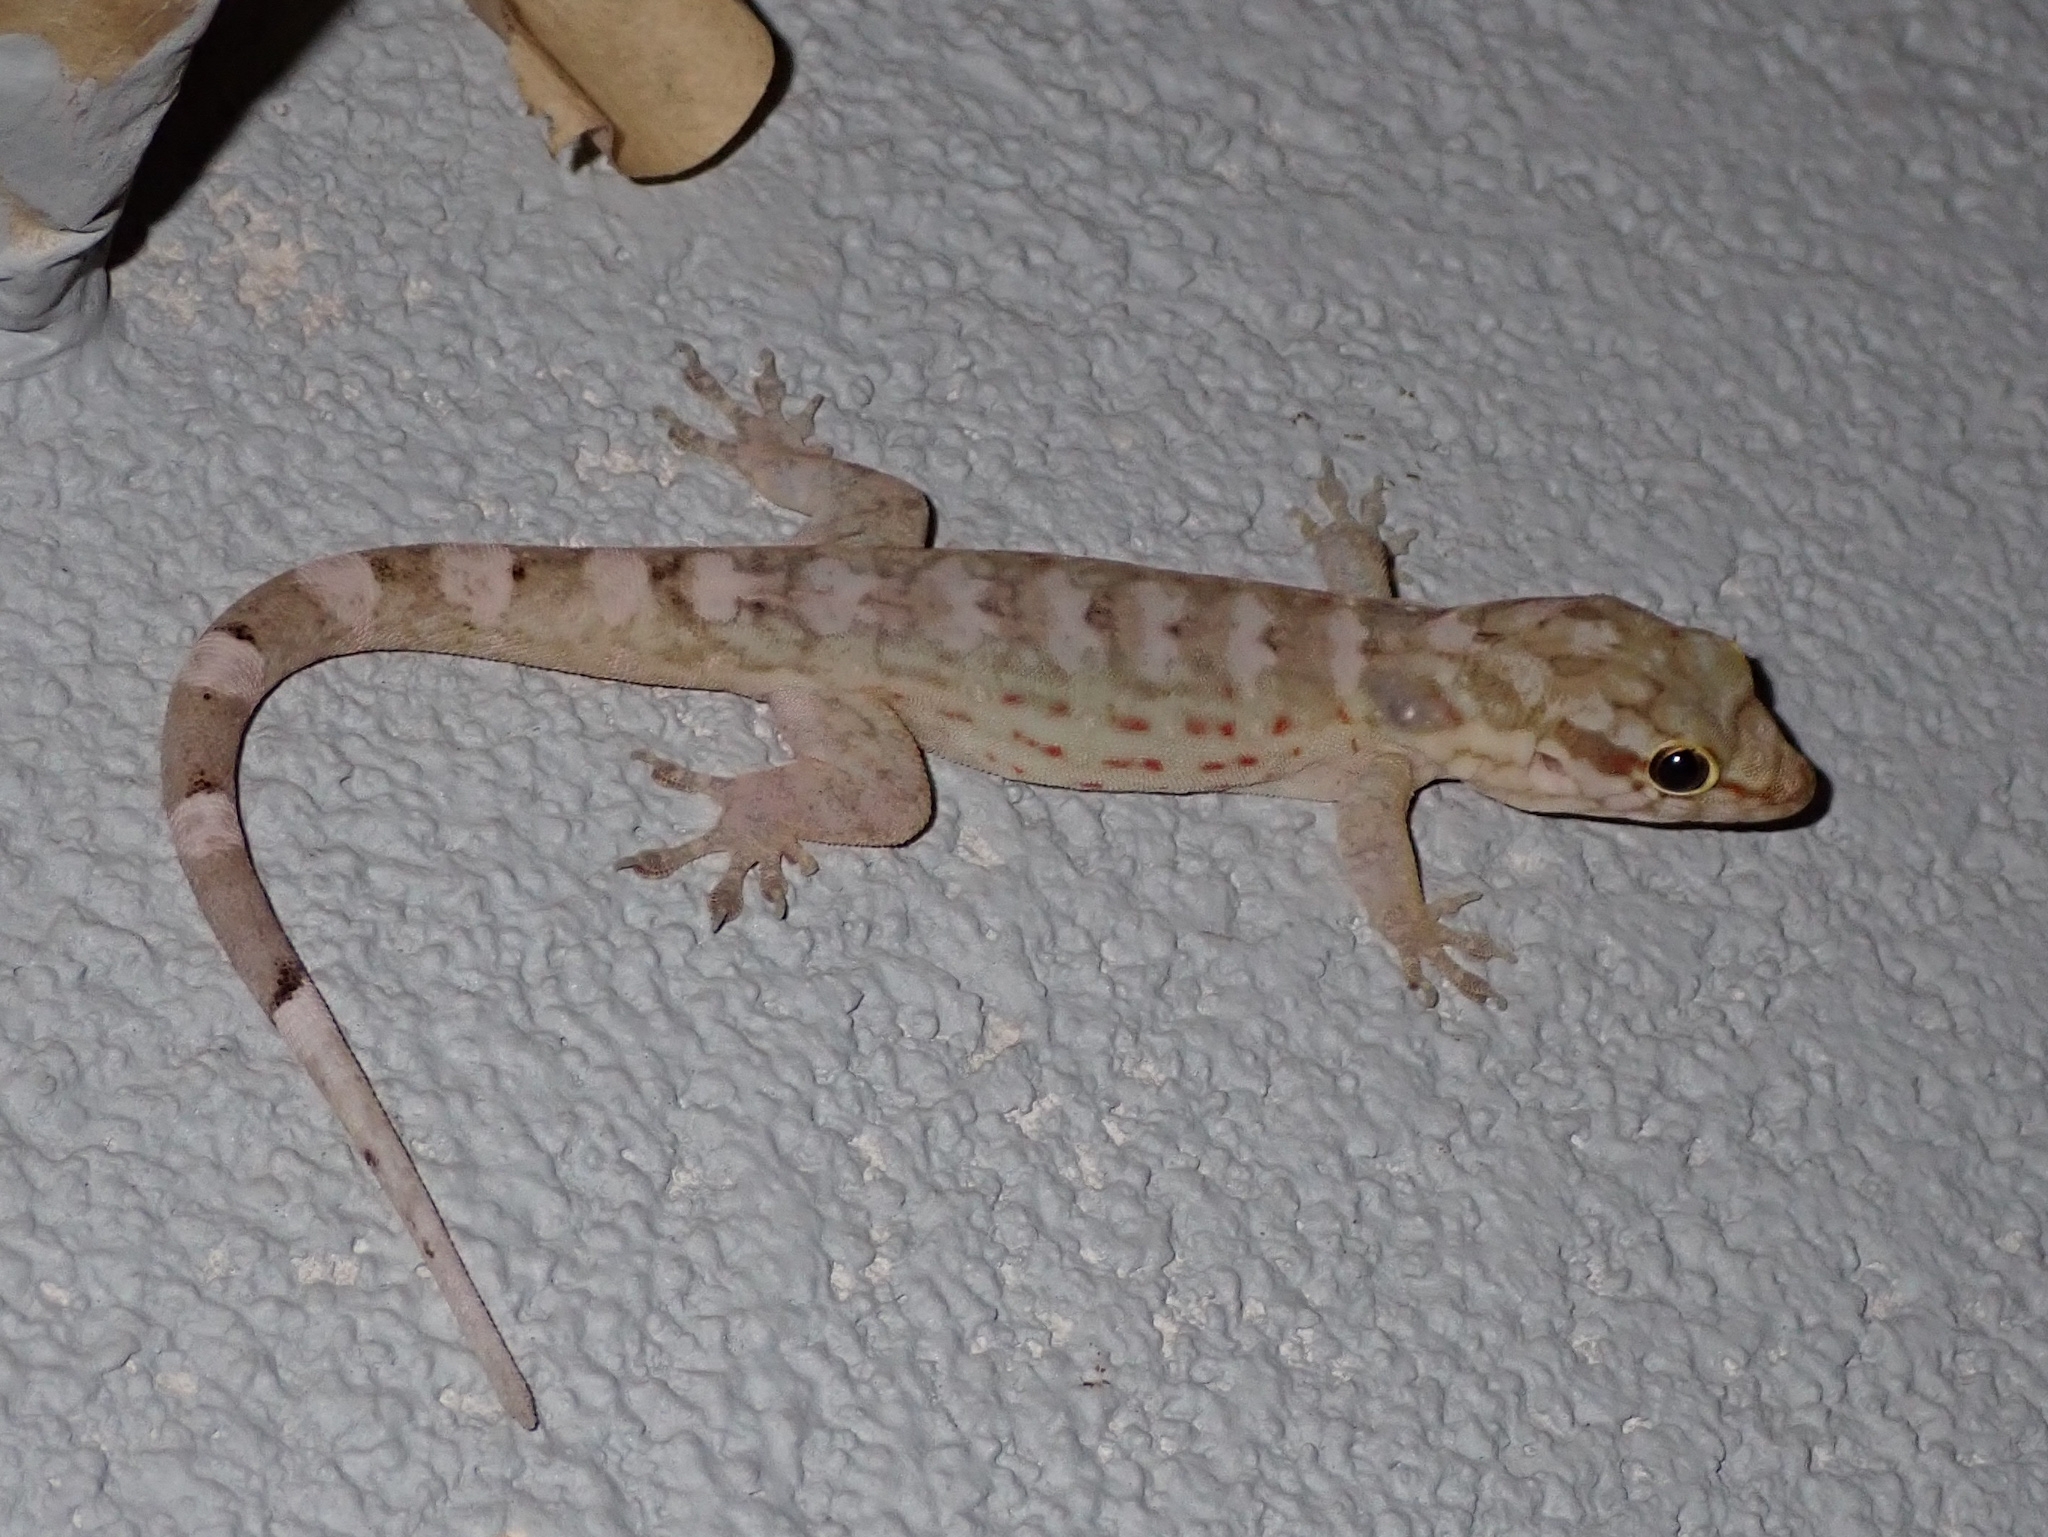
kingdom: Animalia
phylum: Chordata
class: Squamata
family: Sphaerodactylidae
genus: Aristelliger
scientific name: Aristelliger praesignis
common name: Croaking lizard
